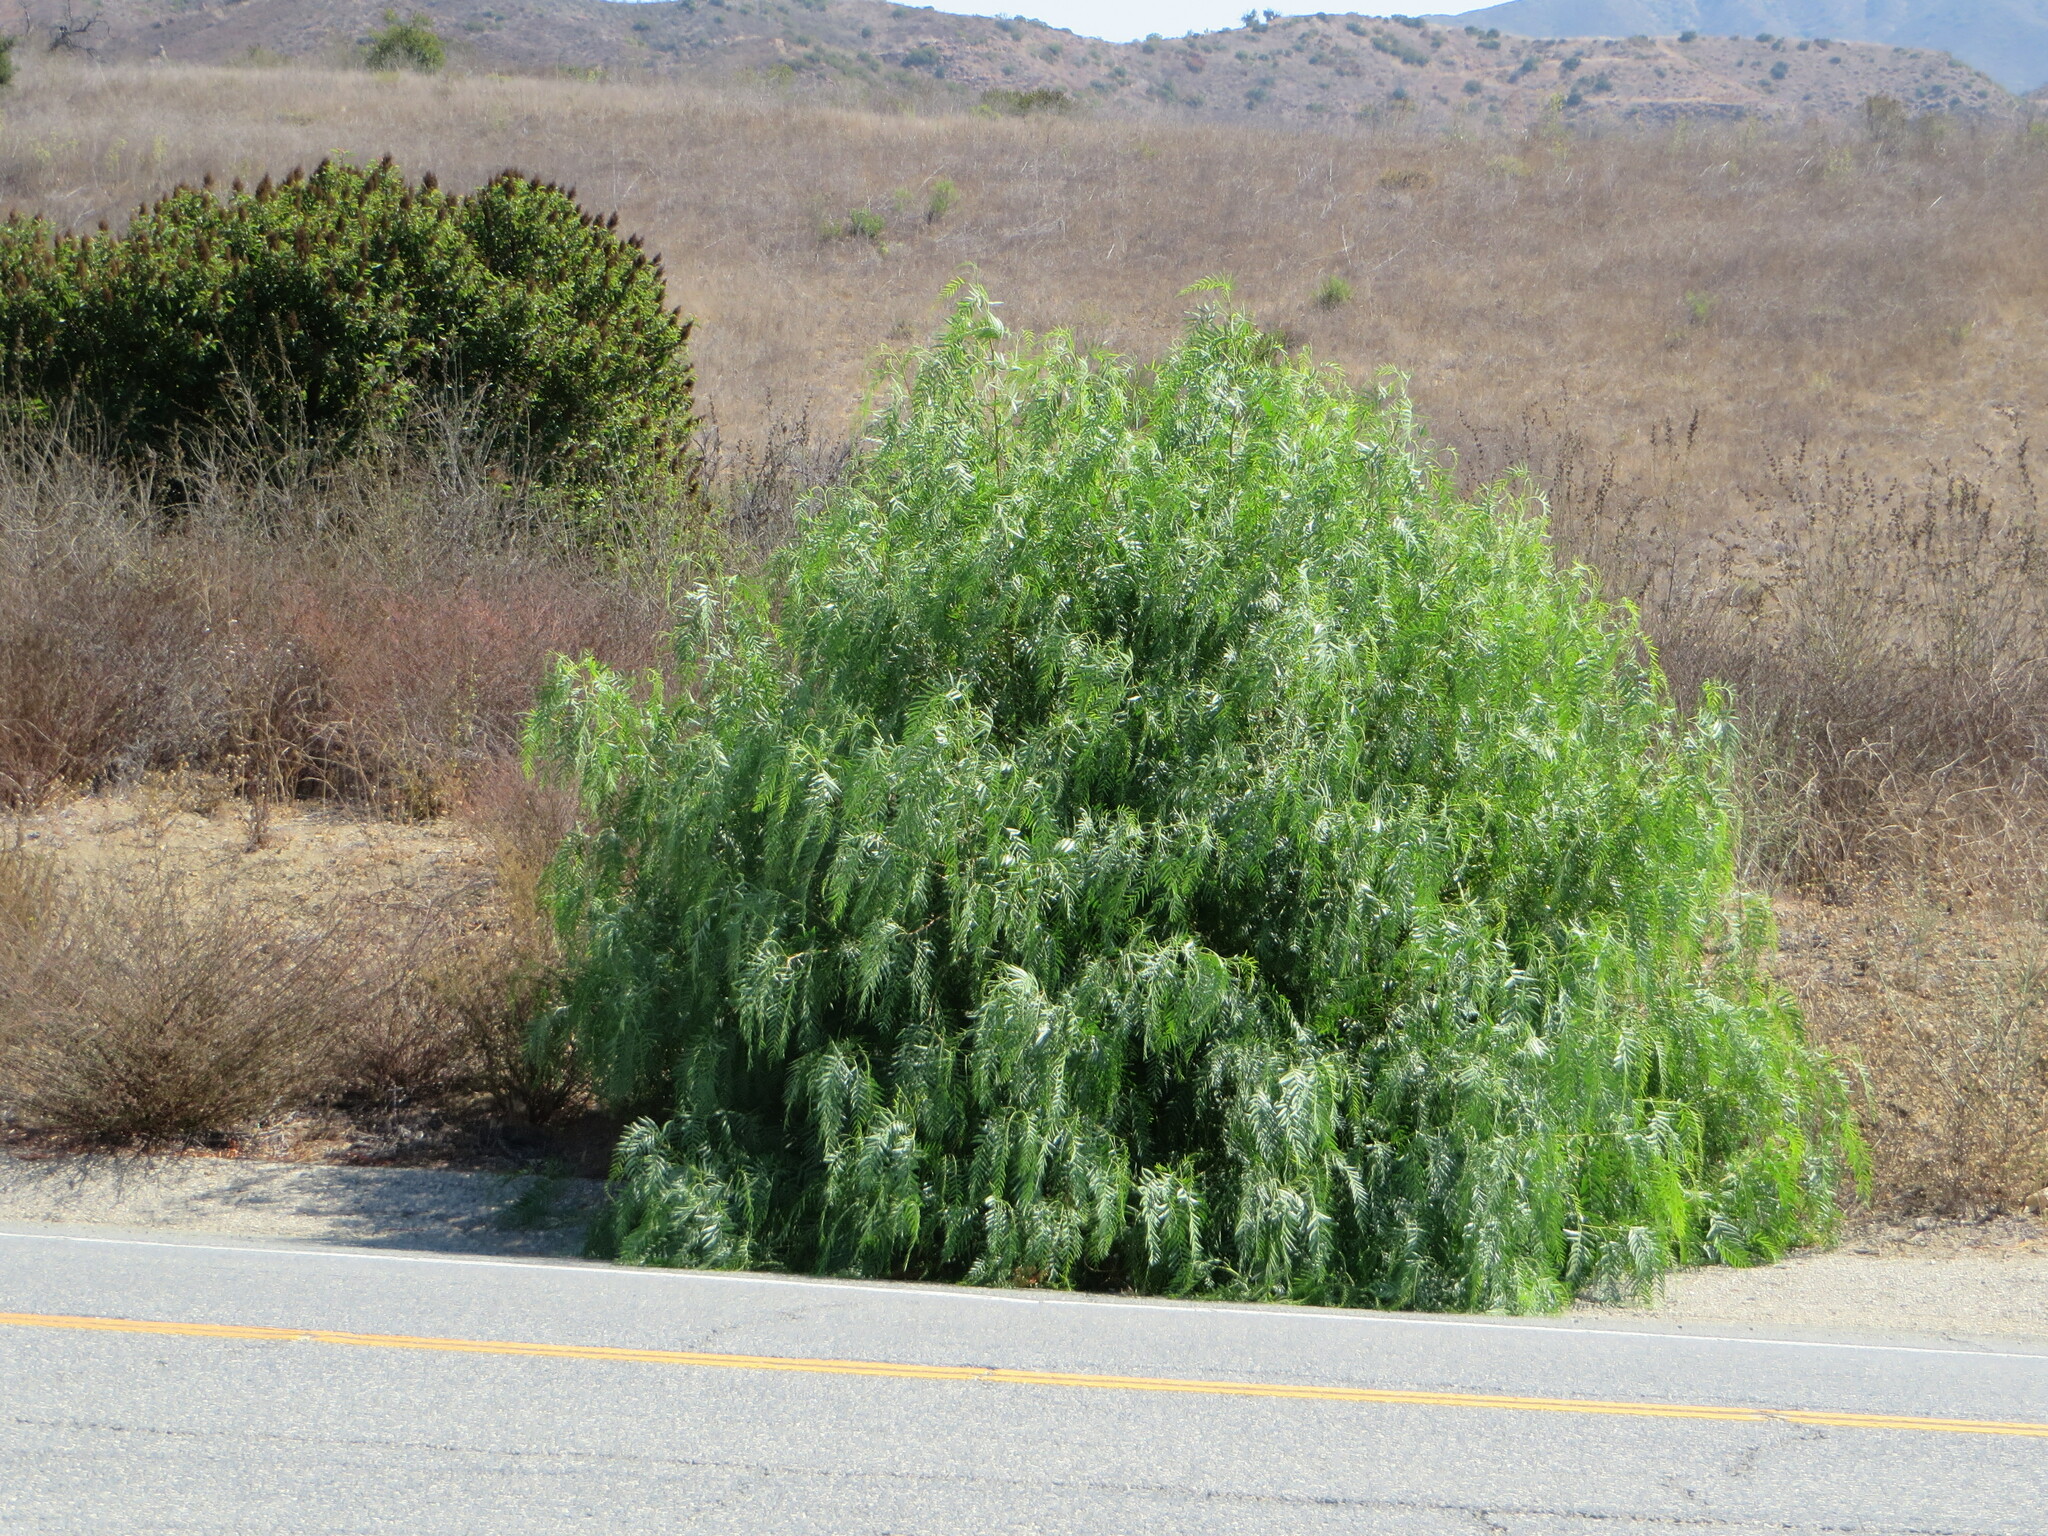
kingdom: Plantae
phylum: Tracheophyta
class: Magnoliopsida
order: Sapindales
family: Anacardiaceae
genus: Schinus
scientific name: Schinus molle
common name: Peruvian peppertree
